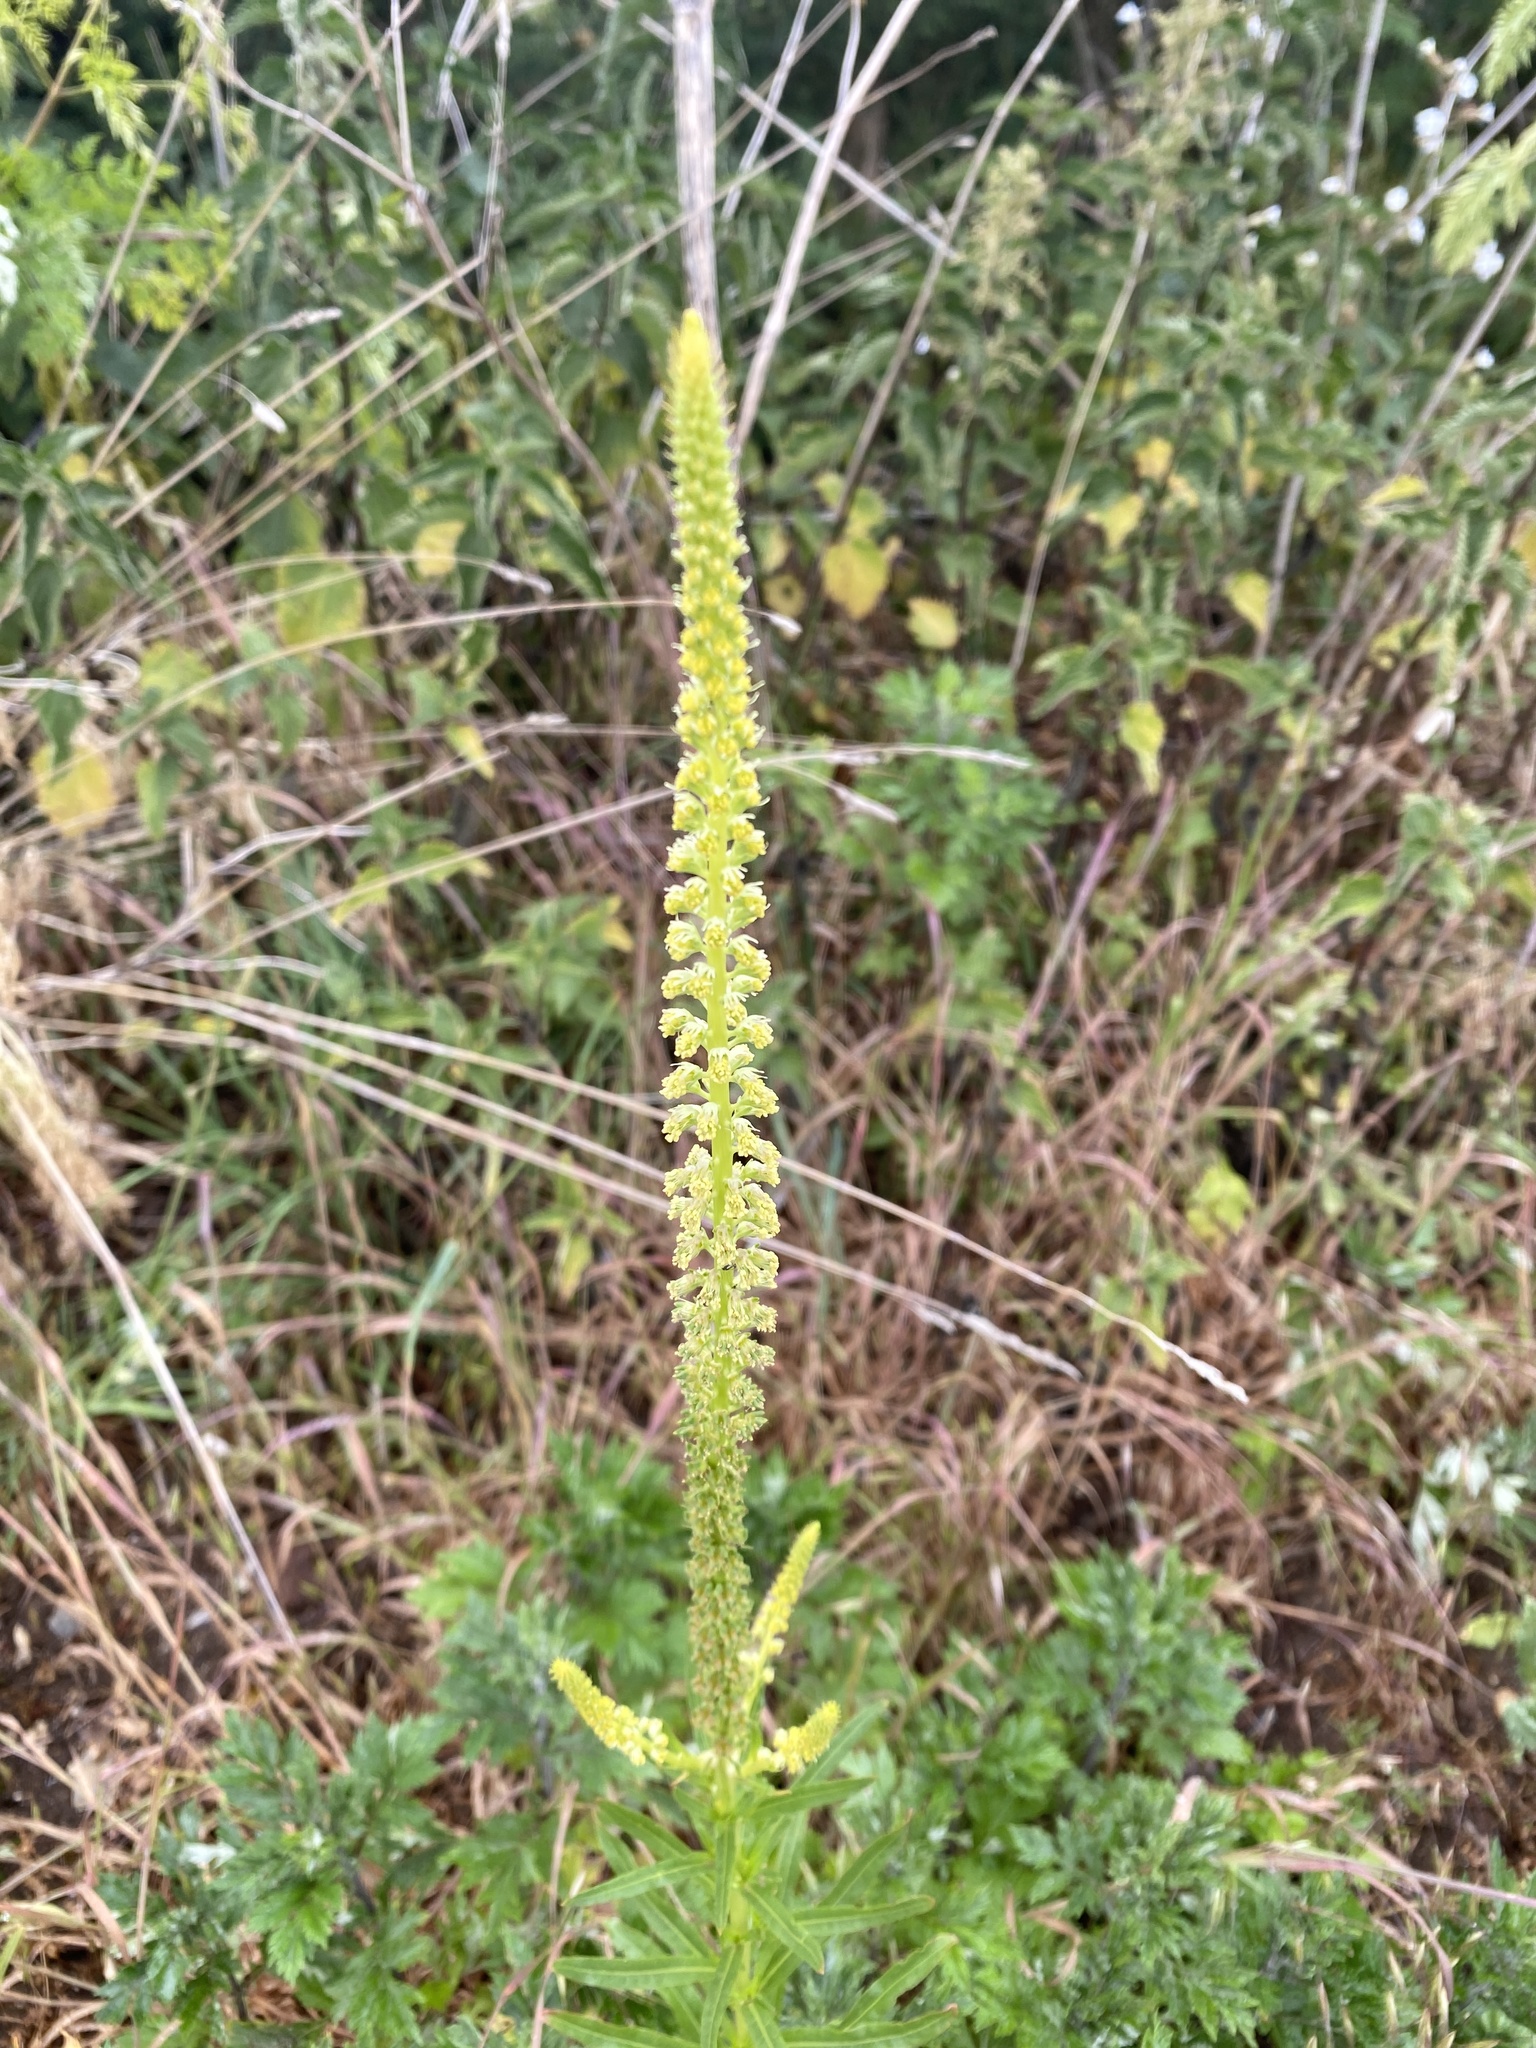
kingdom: Plantae
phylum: Tracheophyta
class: Magnoliopsida
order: Brassicales
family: Resedaceae
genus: Reseda
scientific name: Reseda luteola
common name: Weld
